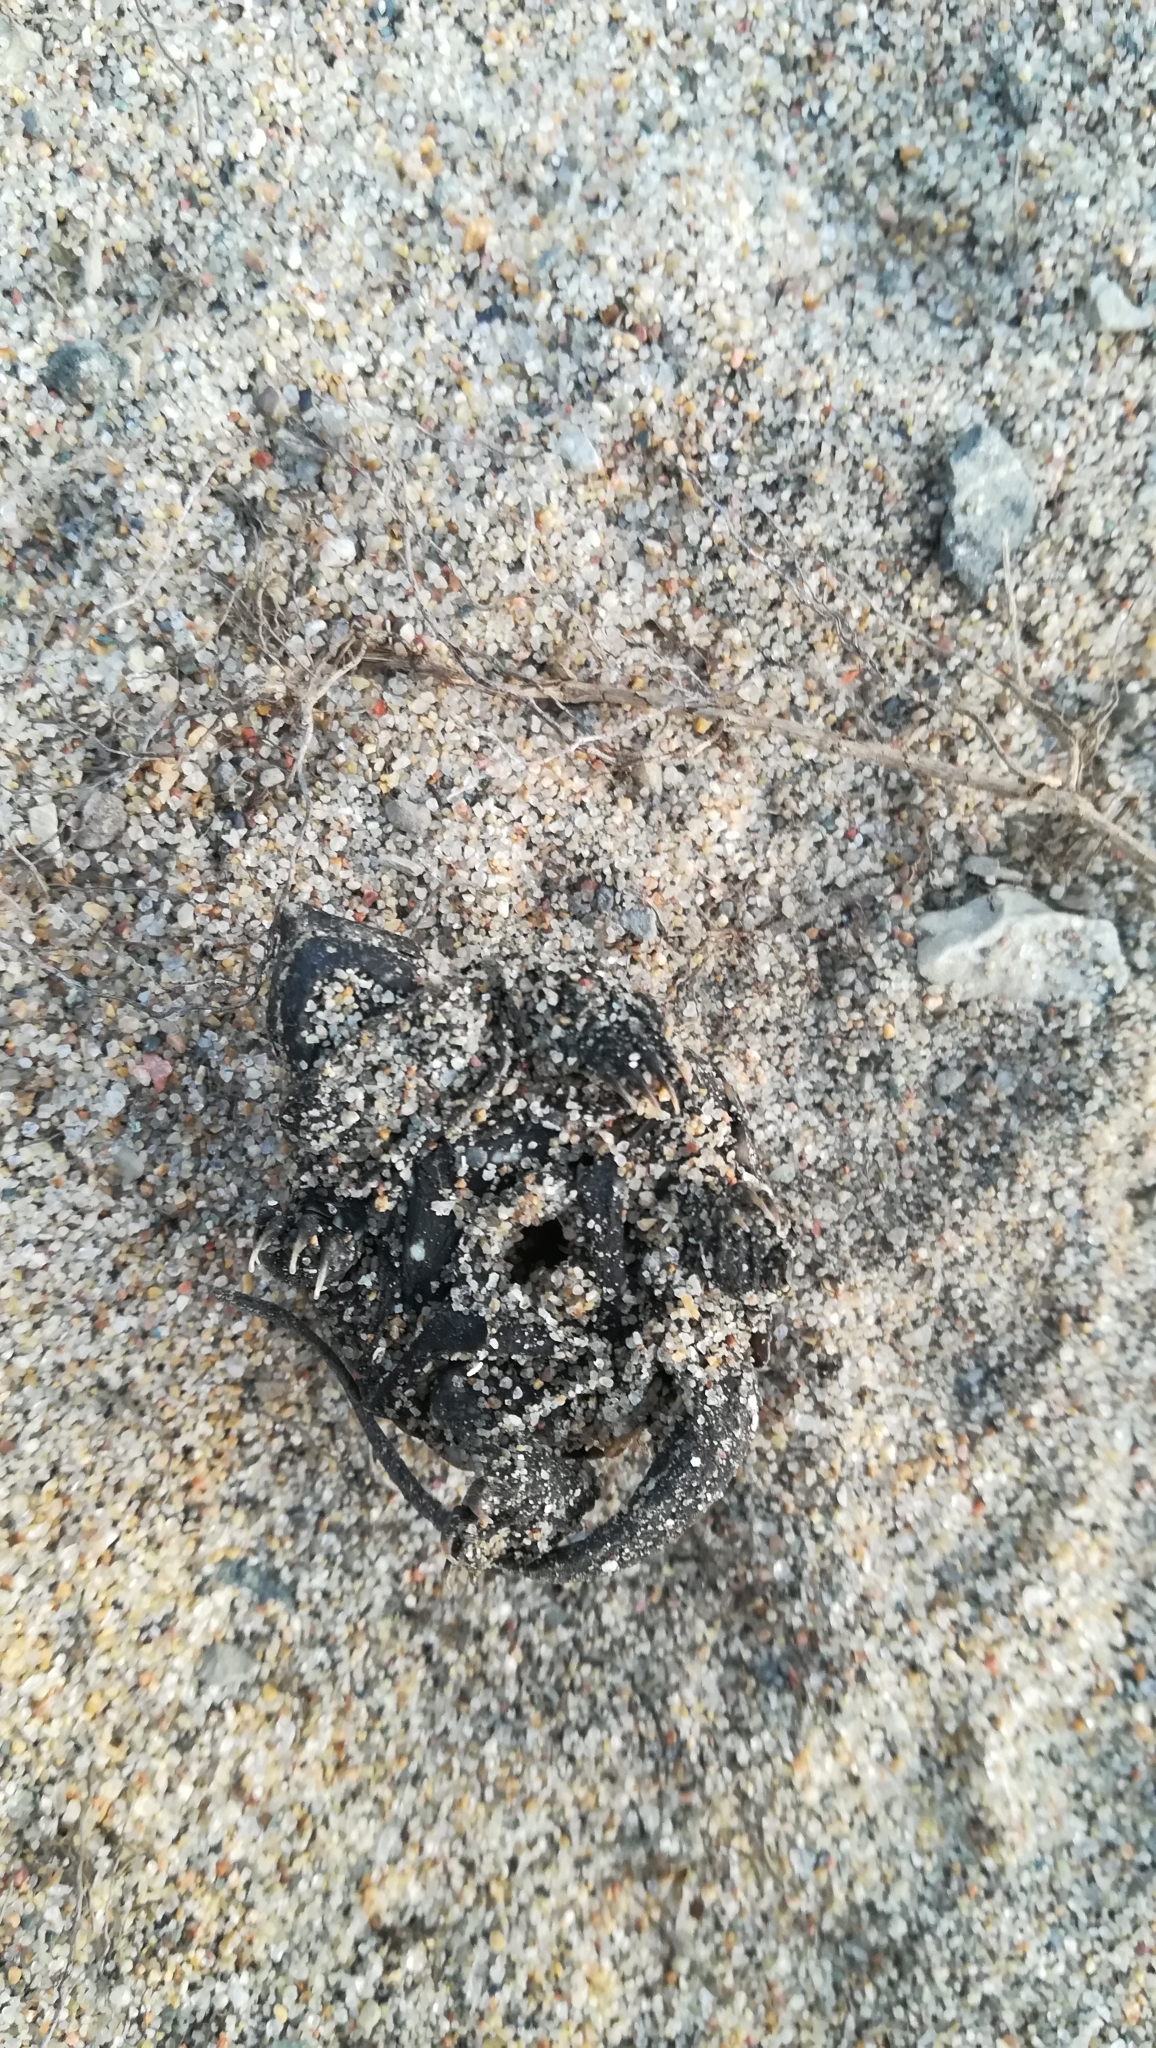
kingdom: Animalia
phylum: Chordata
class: Testudines
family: Chelydridae
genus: Chelydra
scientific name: Chelydra serpentina
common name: Common snapping turtle
